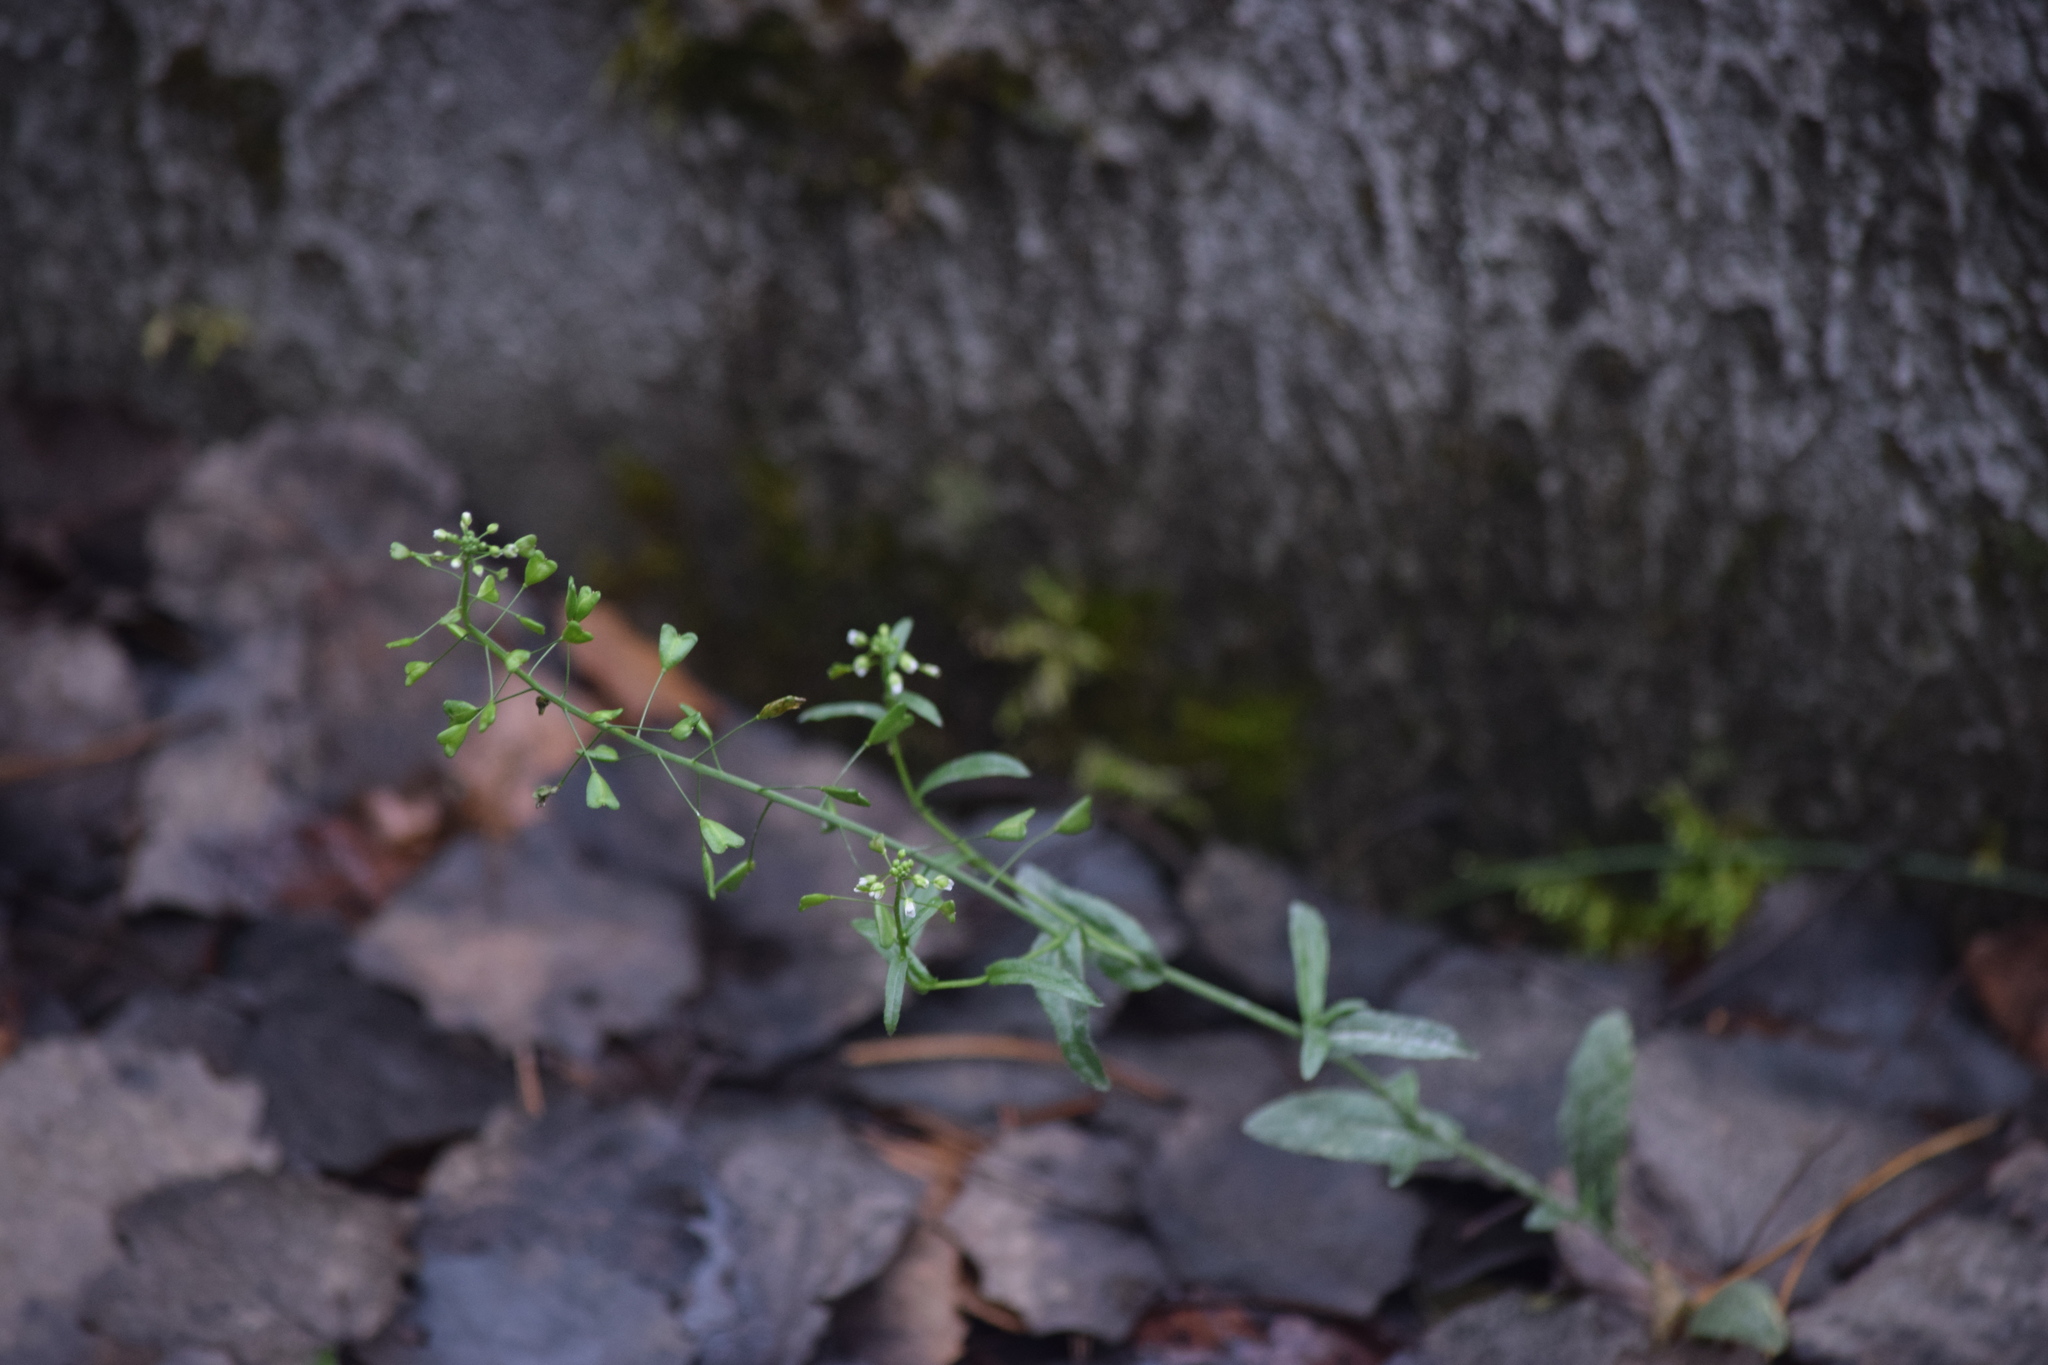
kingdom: Plantae
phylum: Tracheophyta
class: Magnoliopsida
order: Brassicales
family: Brassicaceae
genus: Capsella
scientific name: Capsella bursa-pastoris
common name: Shepherd's purse
